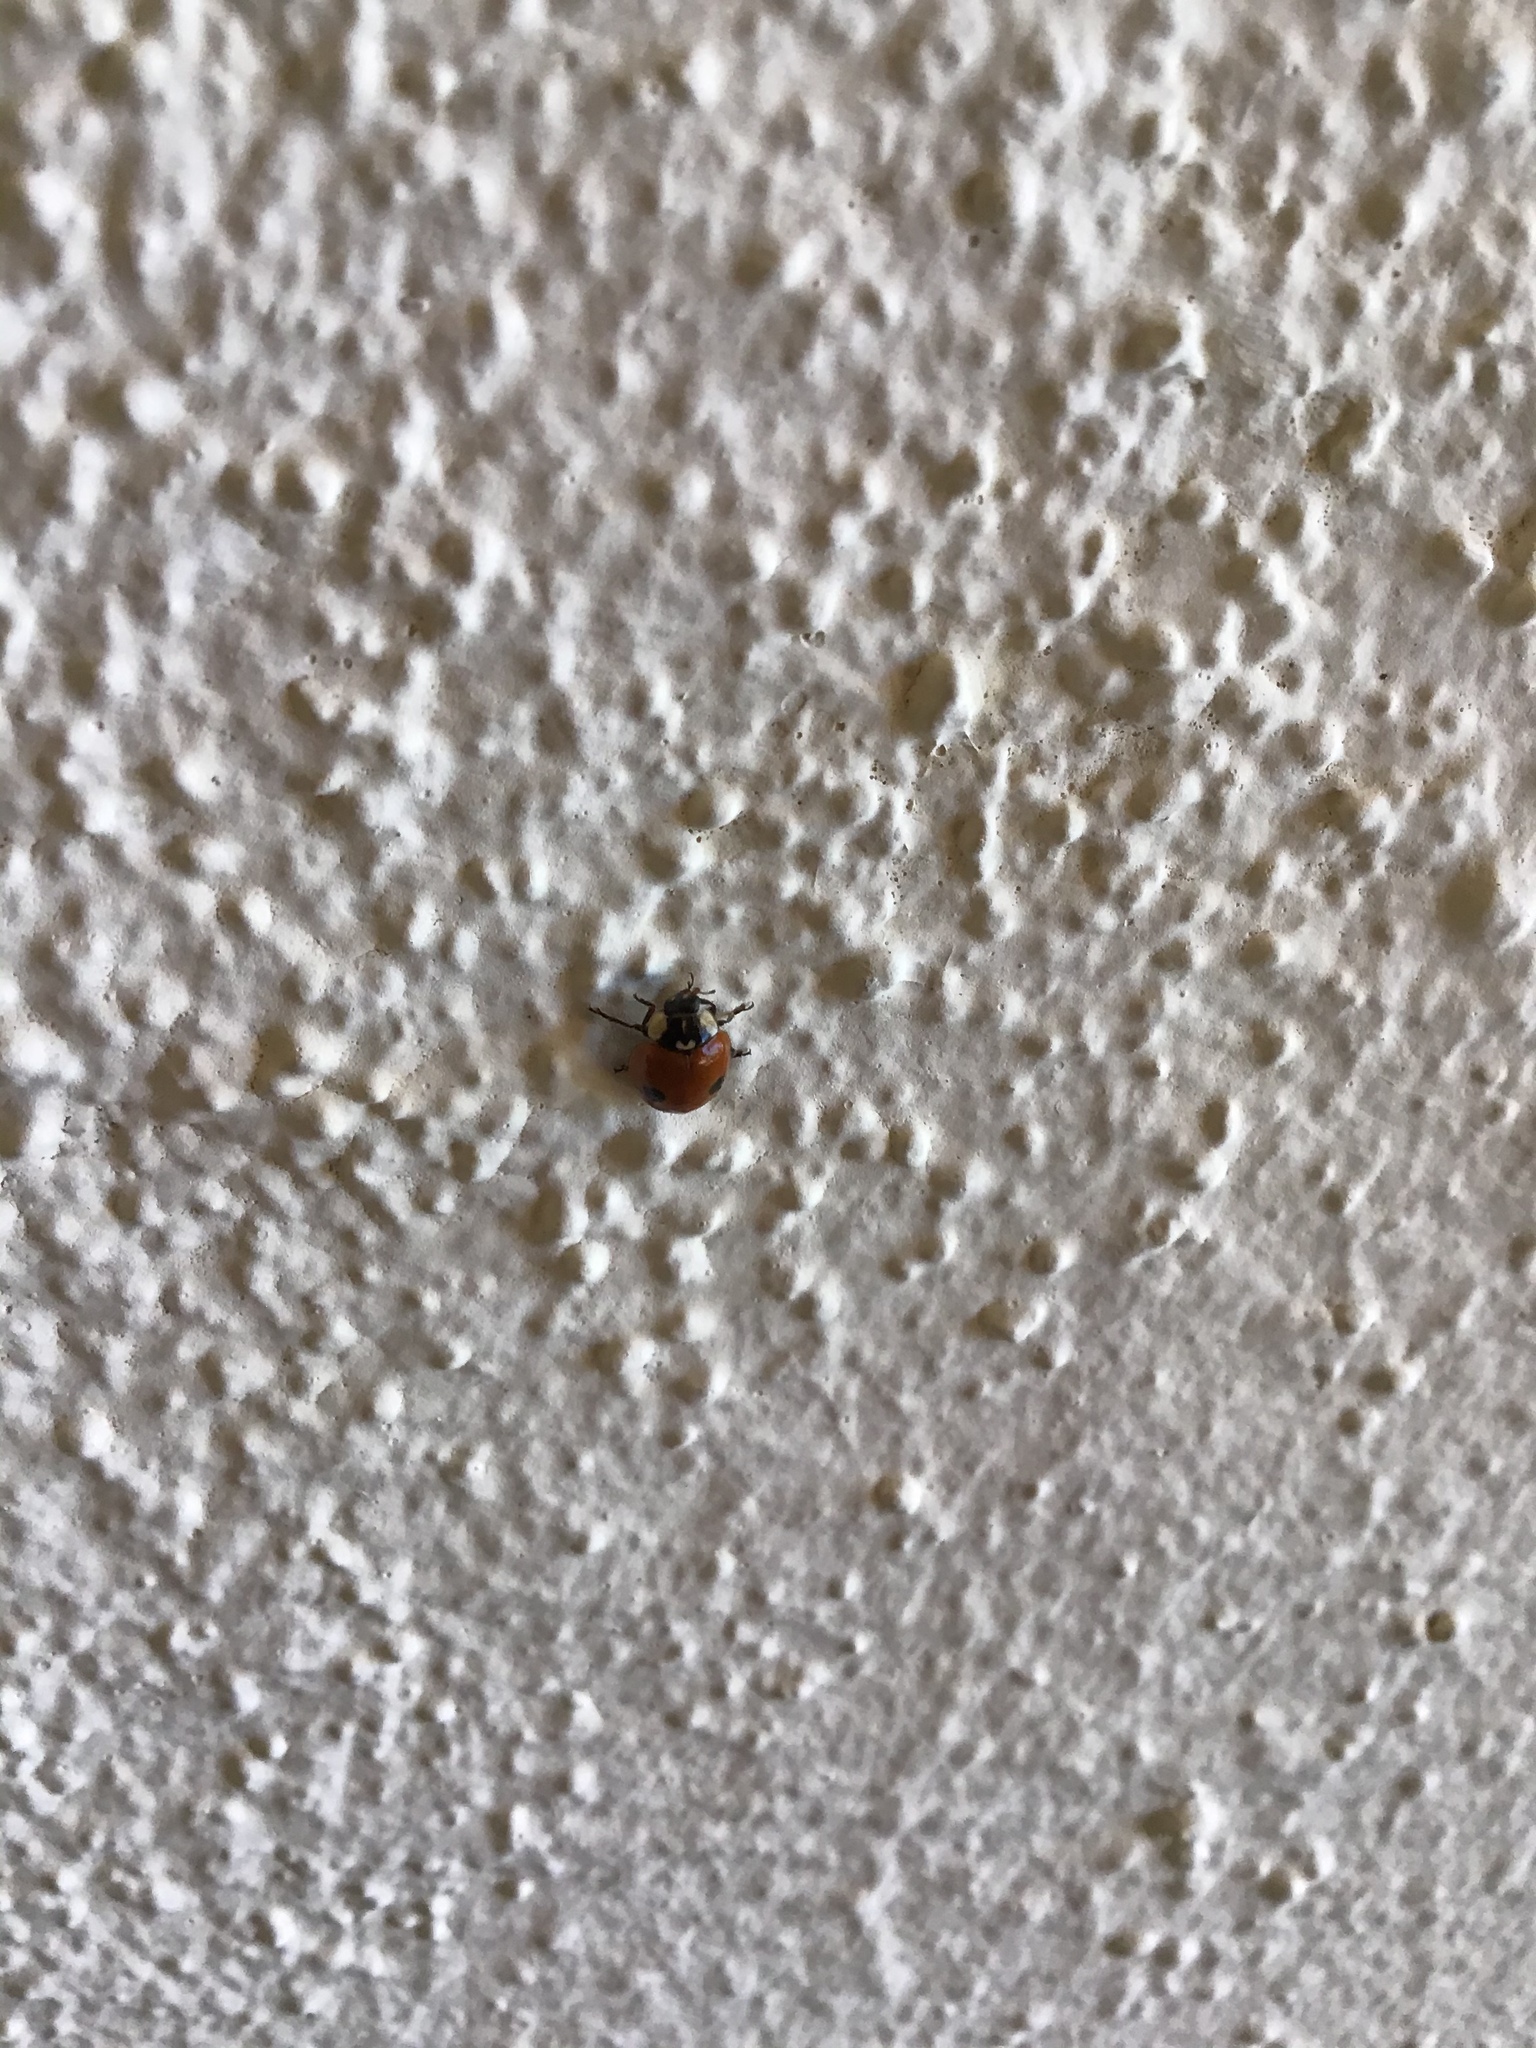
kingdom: Animalia
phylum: Arthropoda
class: Insecta
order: Coleoptera
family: Coccinellidae
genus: Adalia
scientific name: Adalia bipunctata
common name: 2-spot ladybird
